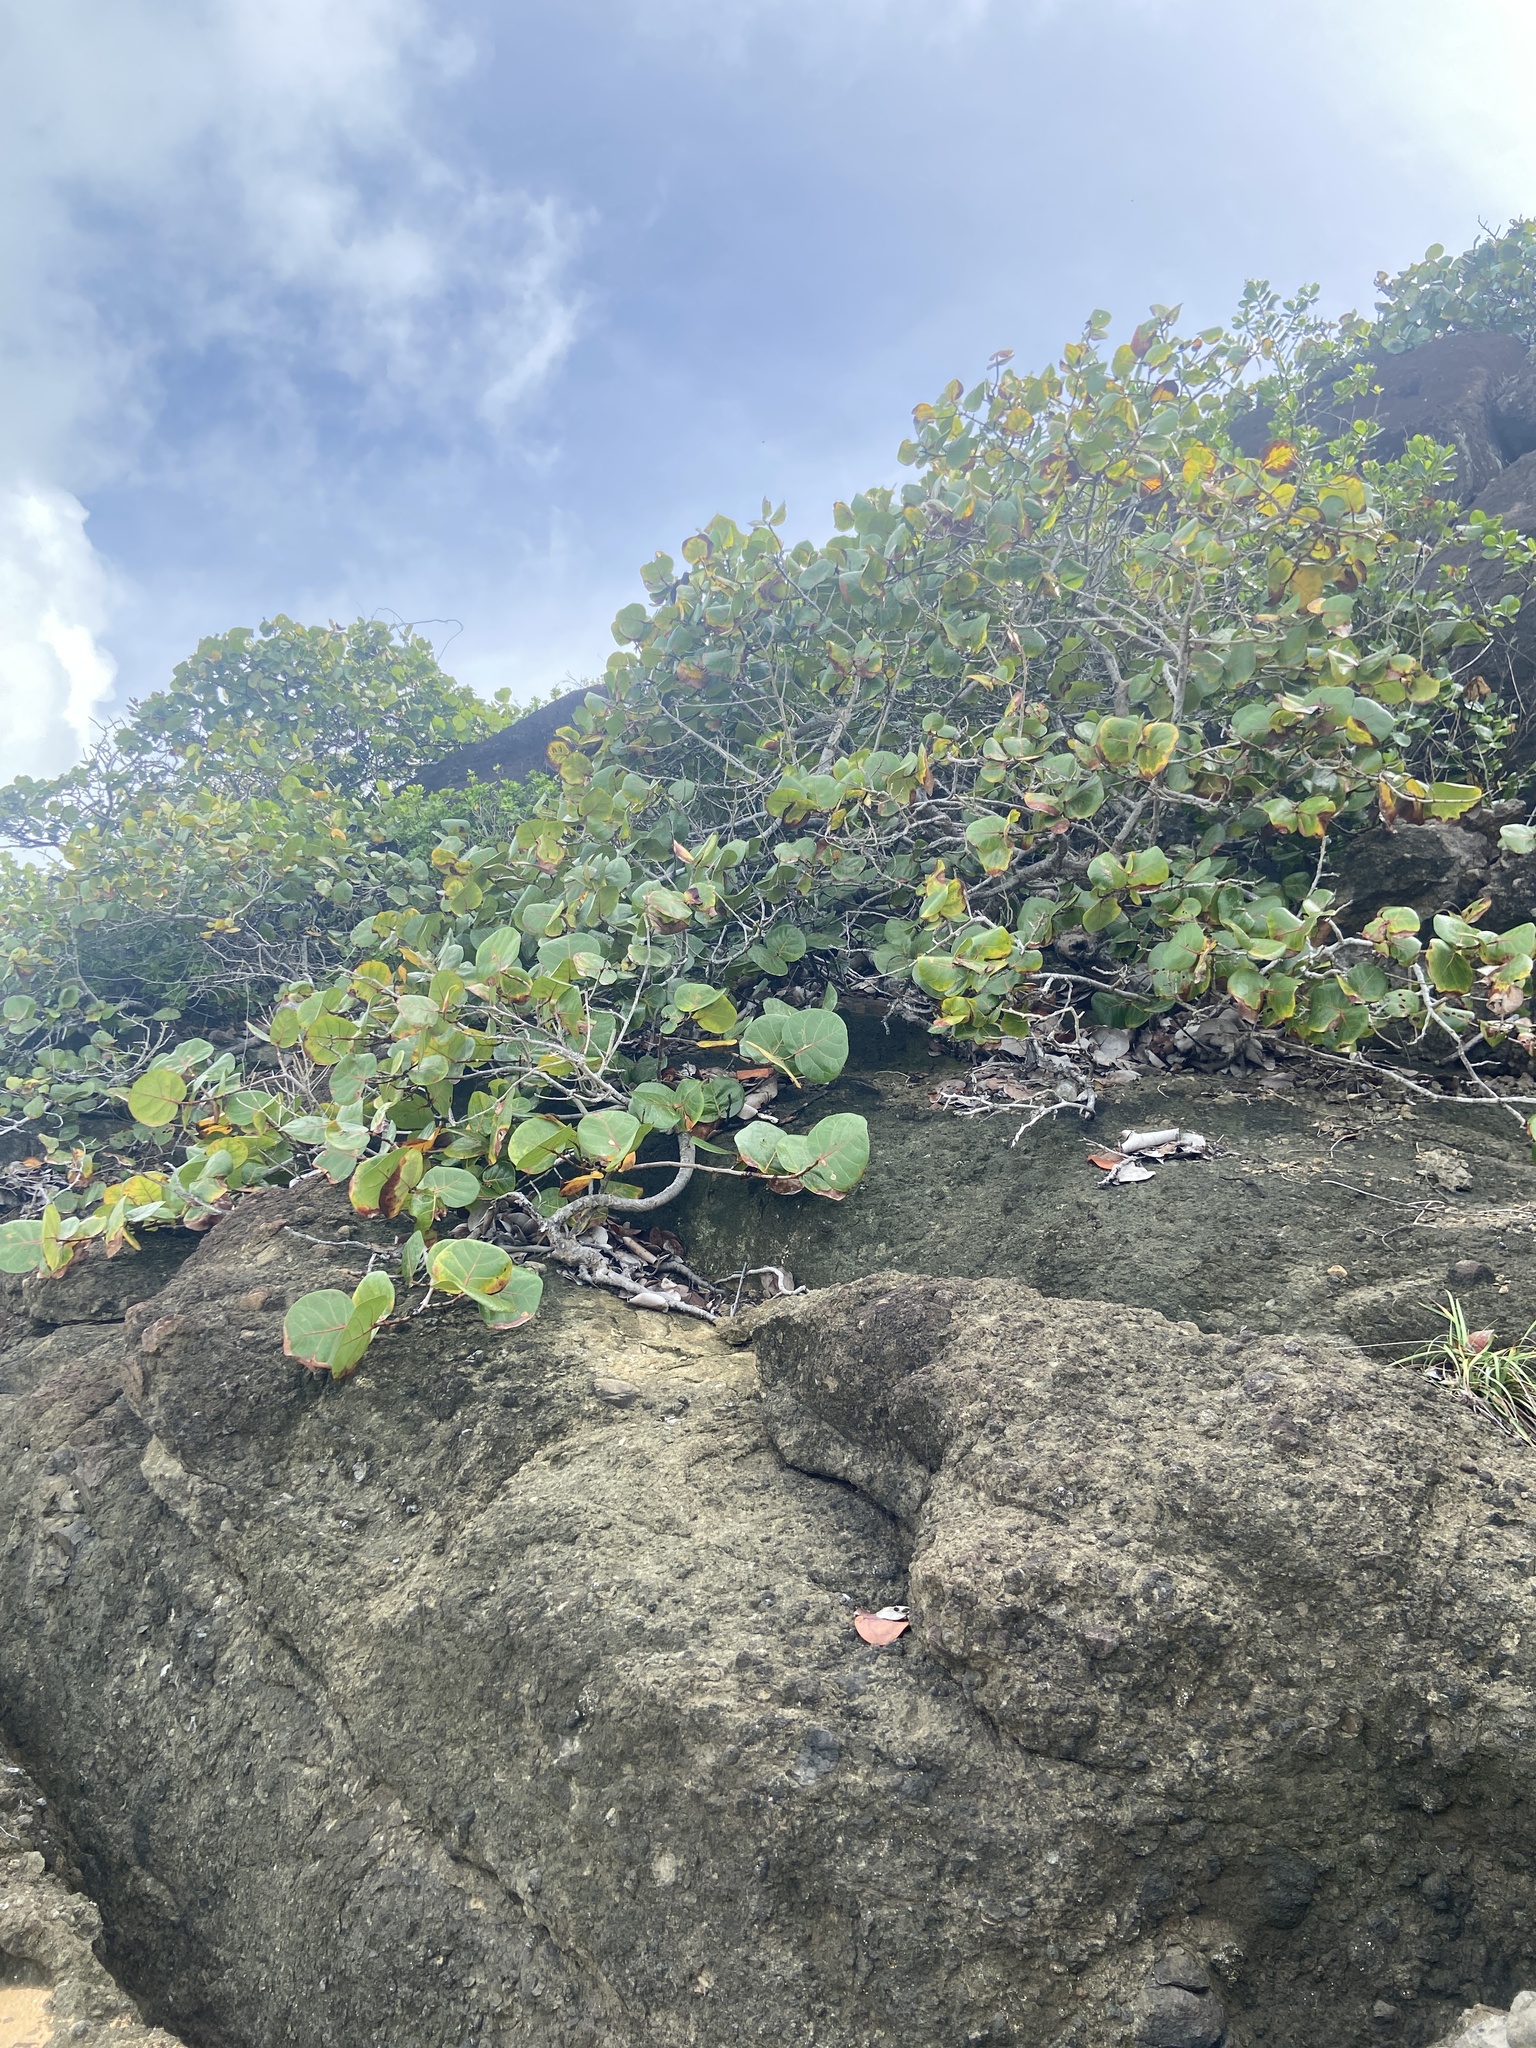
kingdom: Plantae
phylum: Tracheophyta
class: Magnoliopsida
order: Caryophyllales
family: Polygonaceae
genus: Coccoloba
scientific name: Coccoloba uvifera
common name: Seagrape
